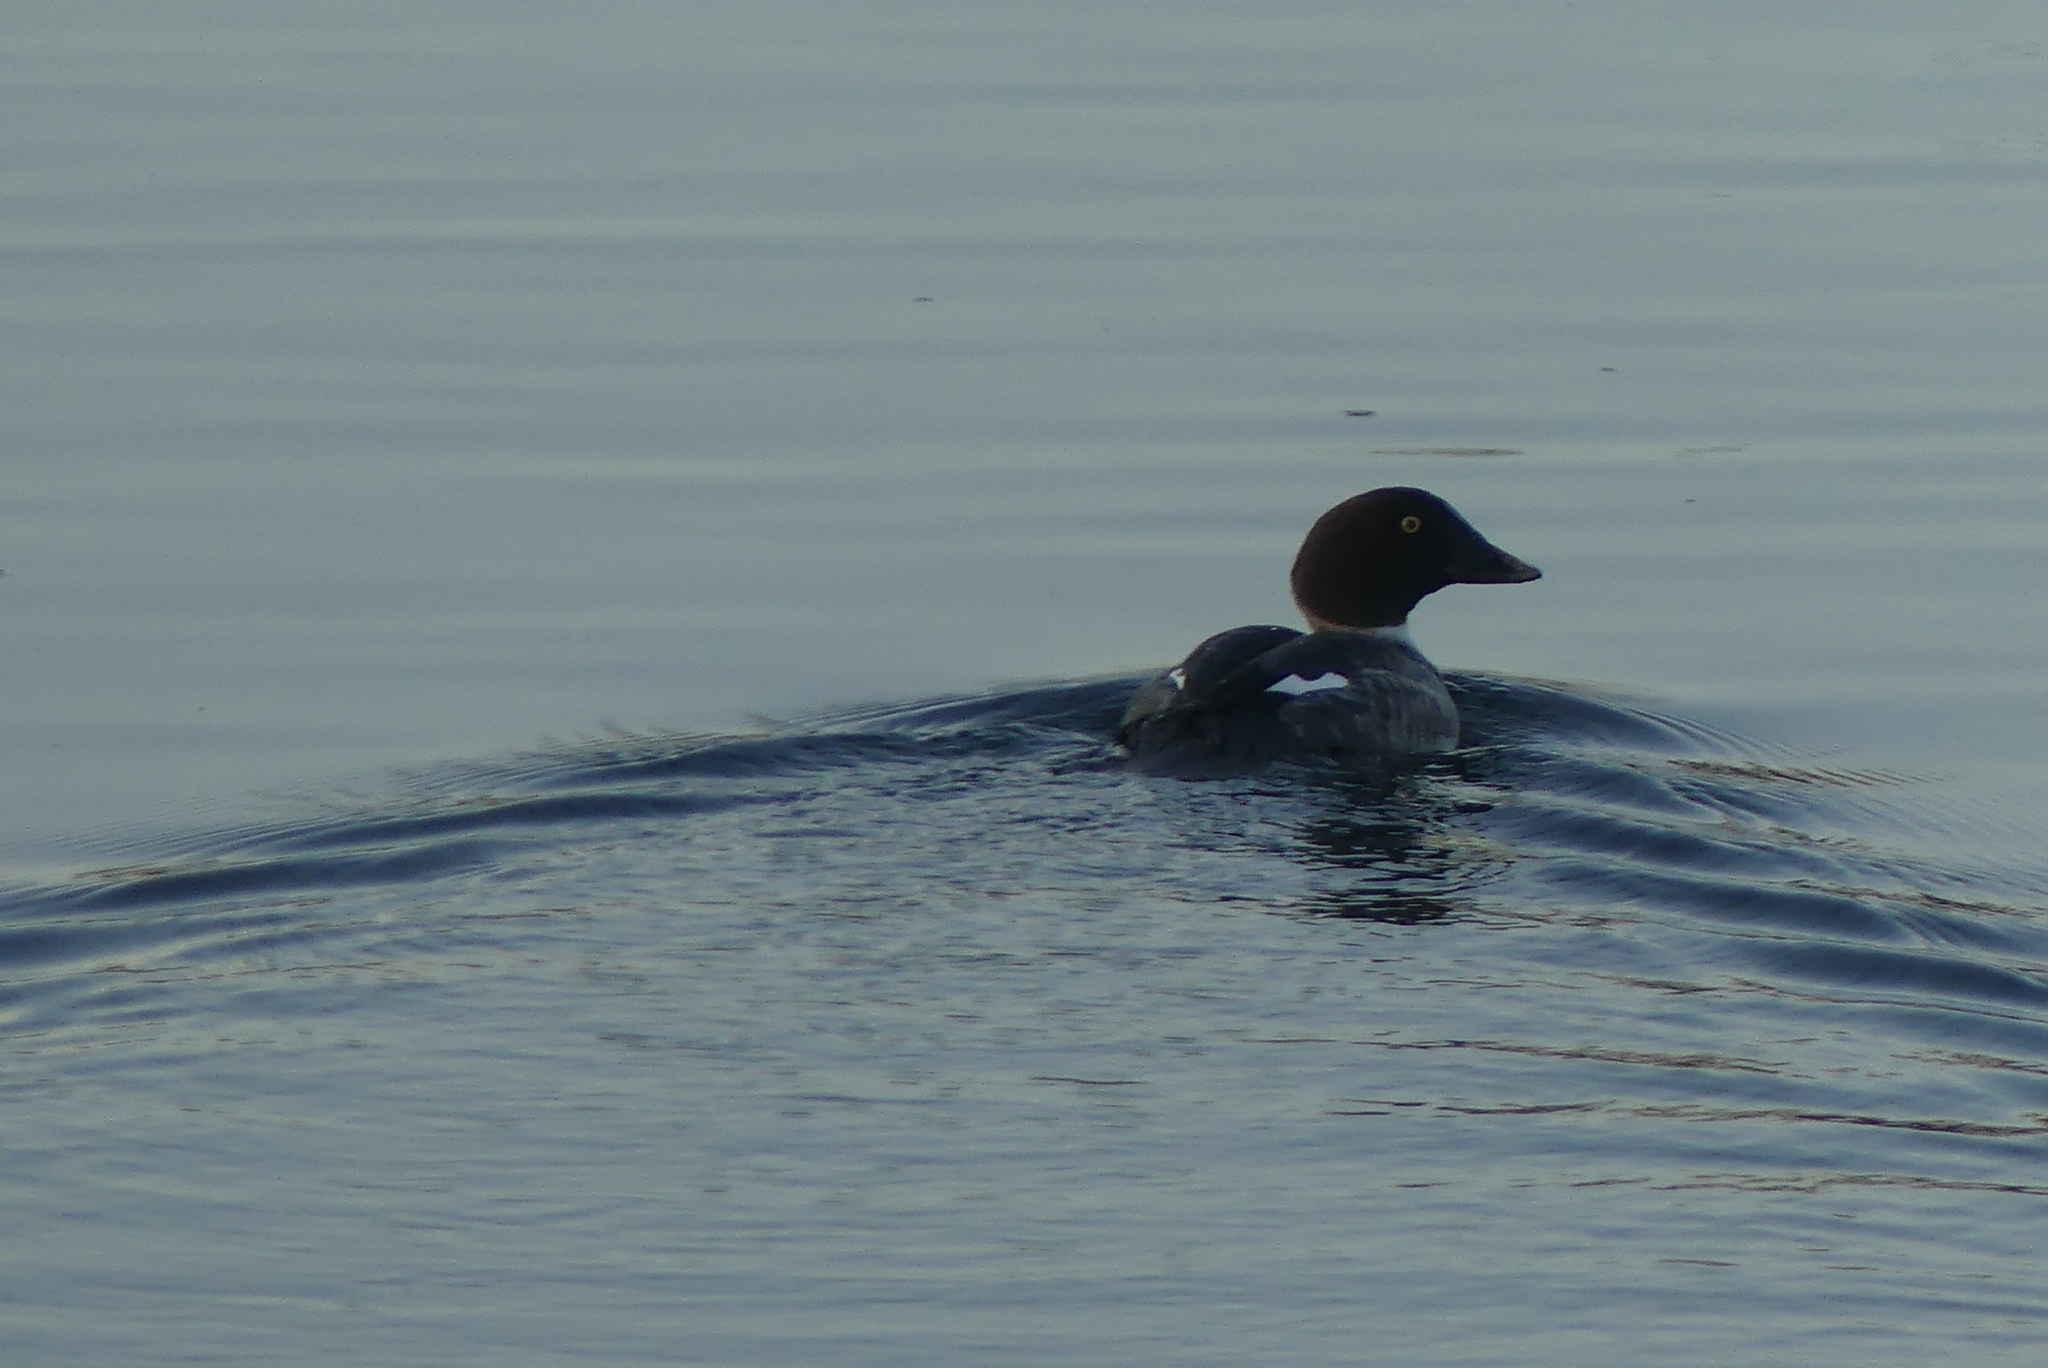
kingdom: Animalia
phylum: Chordata
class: Aves
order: Anseriformes
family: Anatidae
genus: Bucephala
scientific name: Bucephala clangula
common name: Common goldeneye
